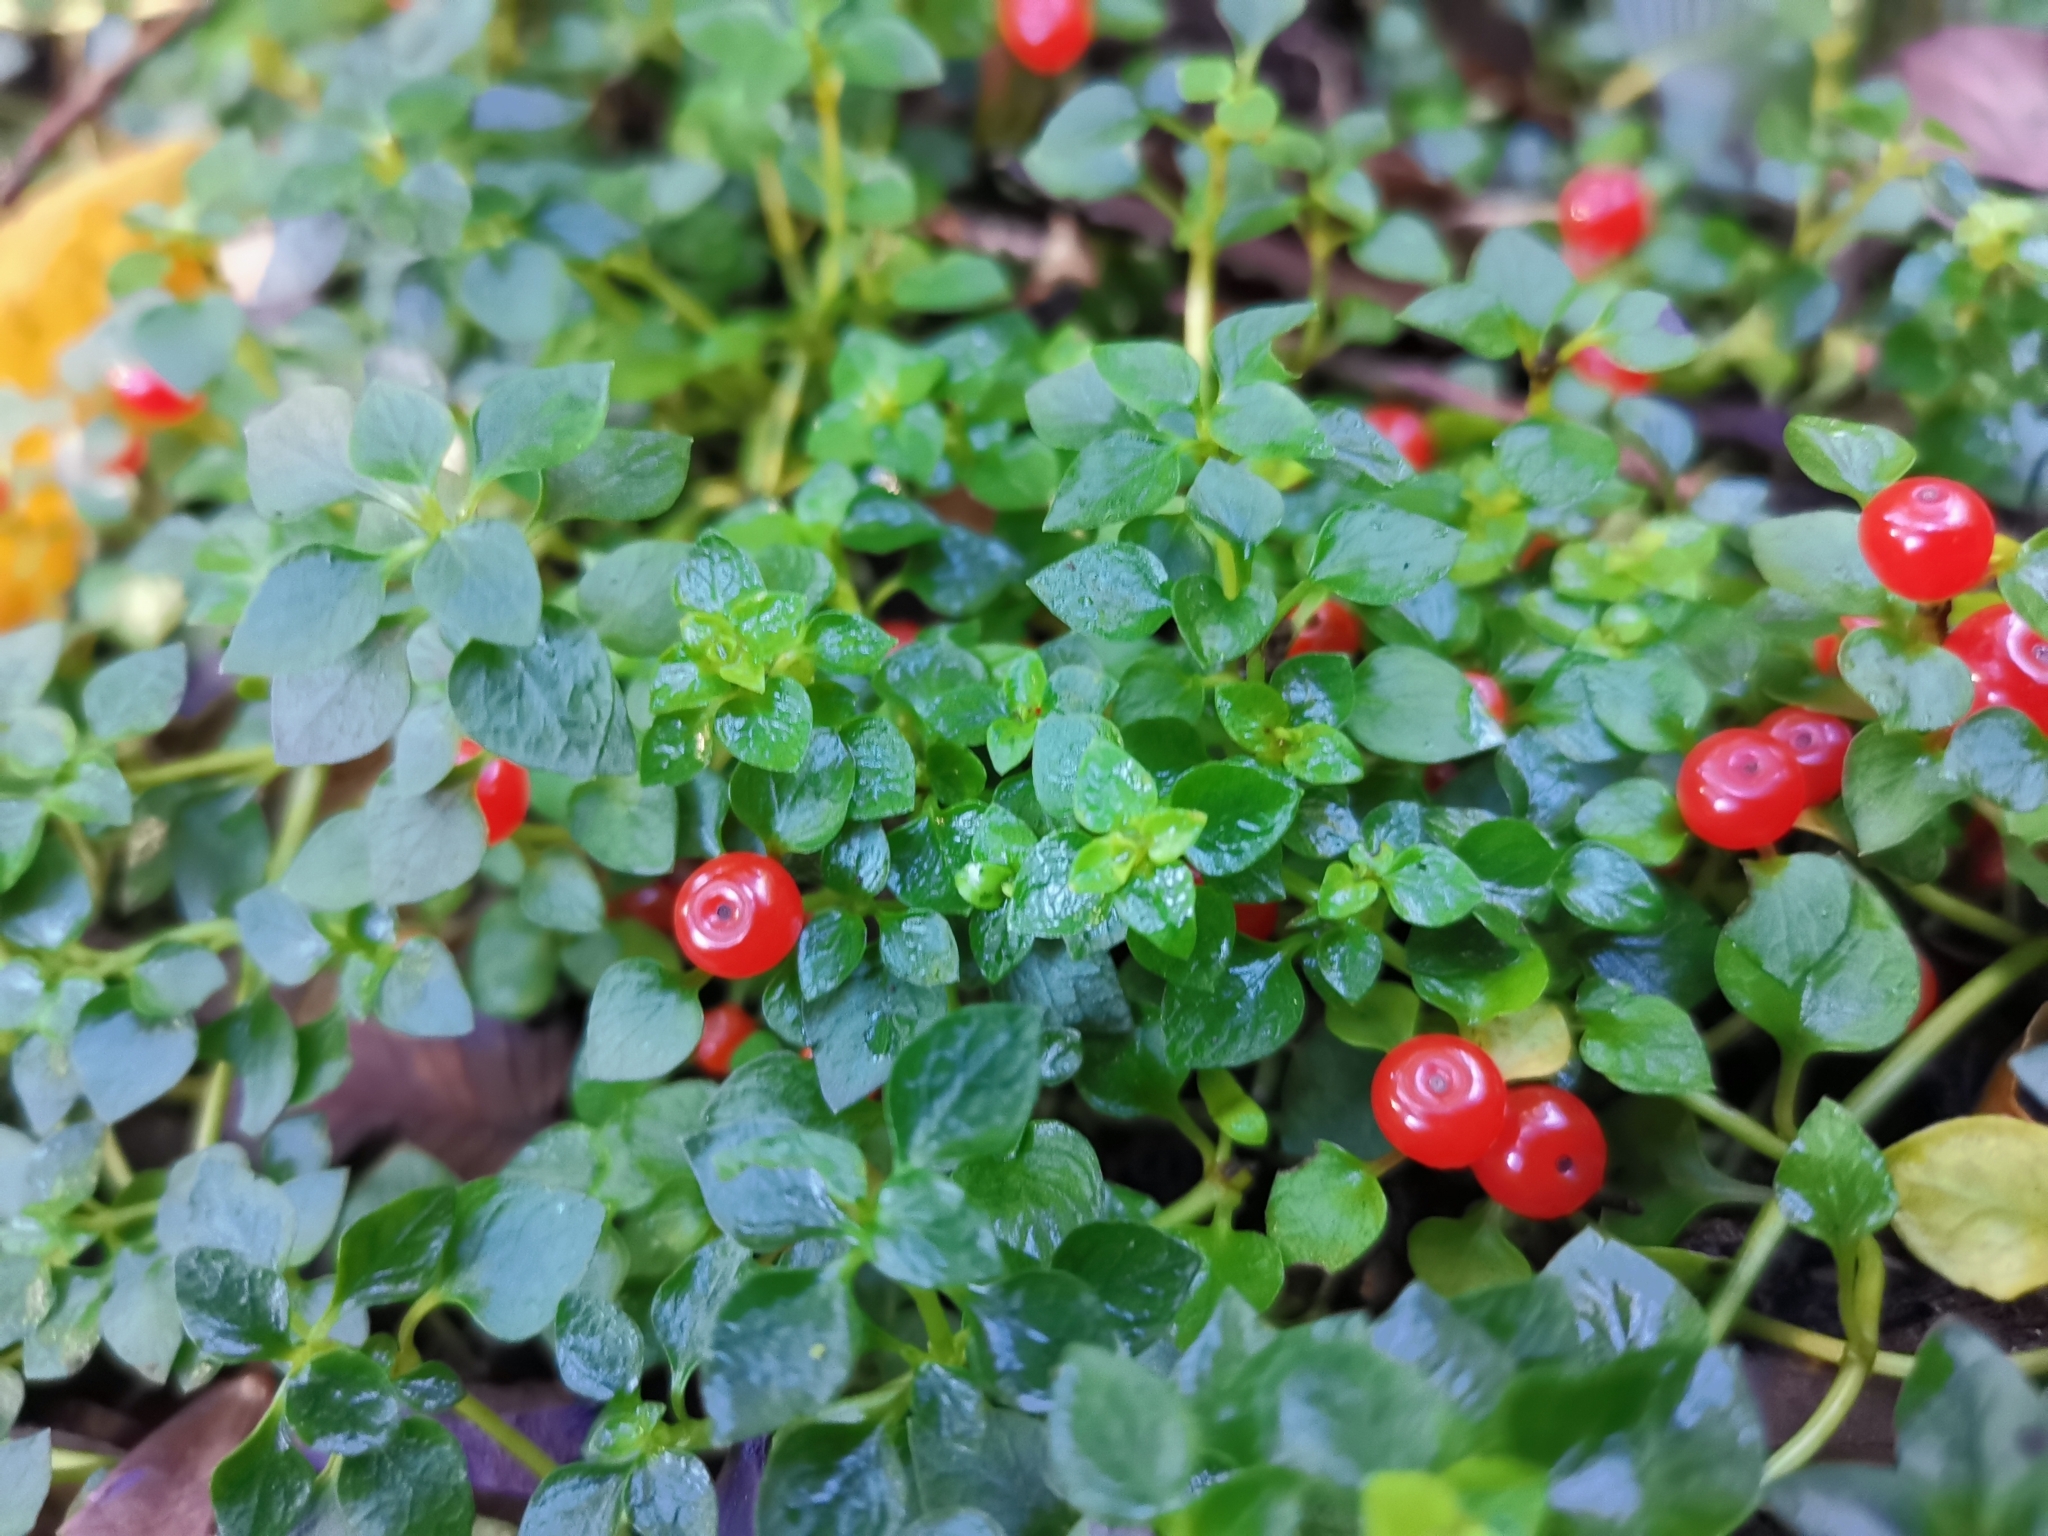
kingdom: Plantae
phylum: Tracheophyta
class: Magnoliopsida
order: Gentianales
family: Rubiaceae
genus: Nertera
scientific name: Nertera granadensis
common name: Beadplant
